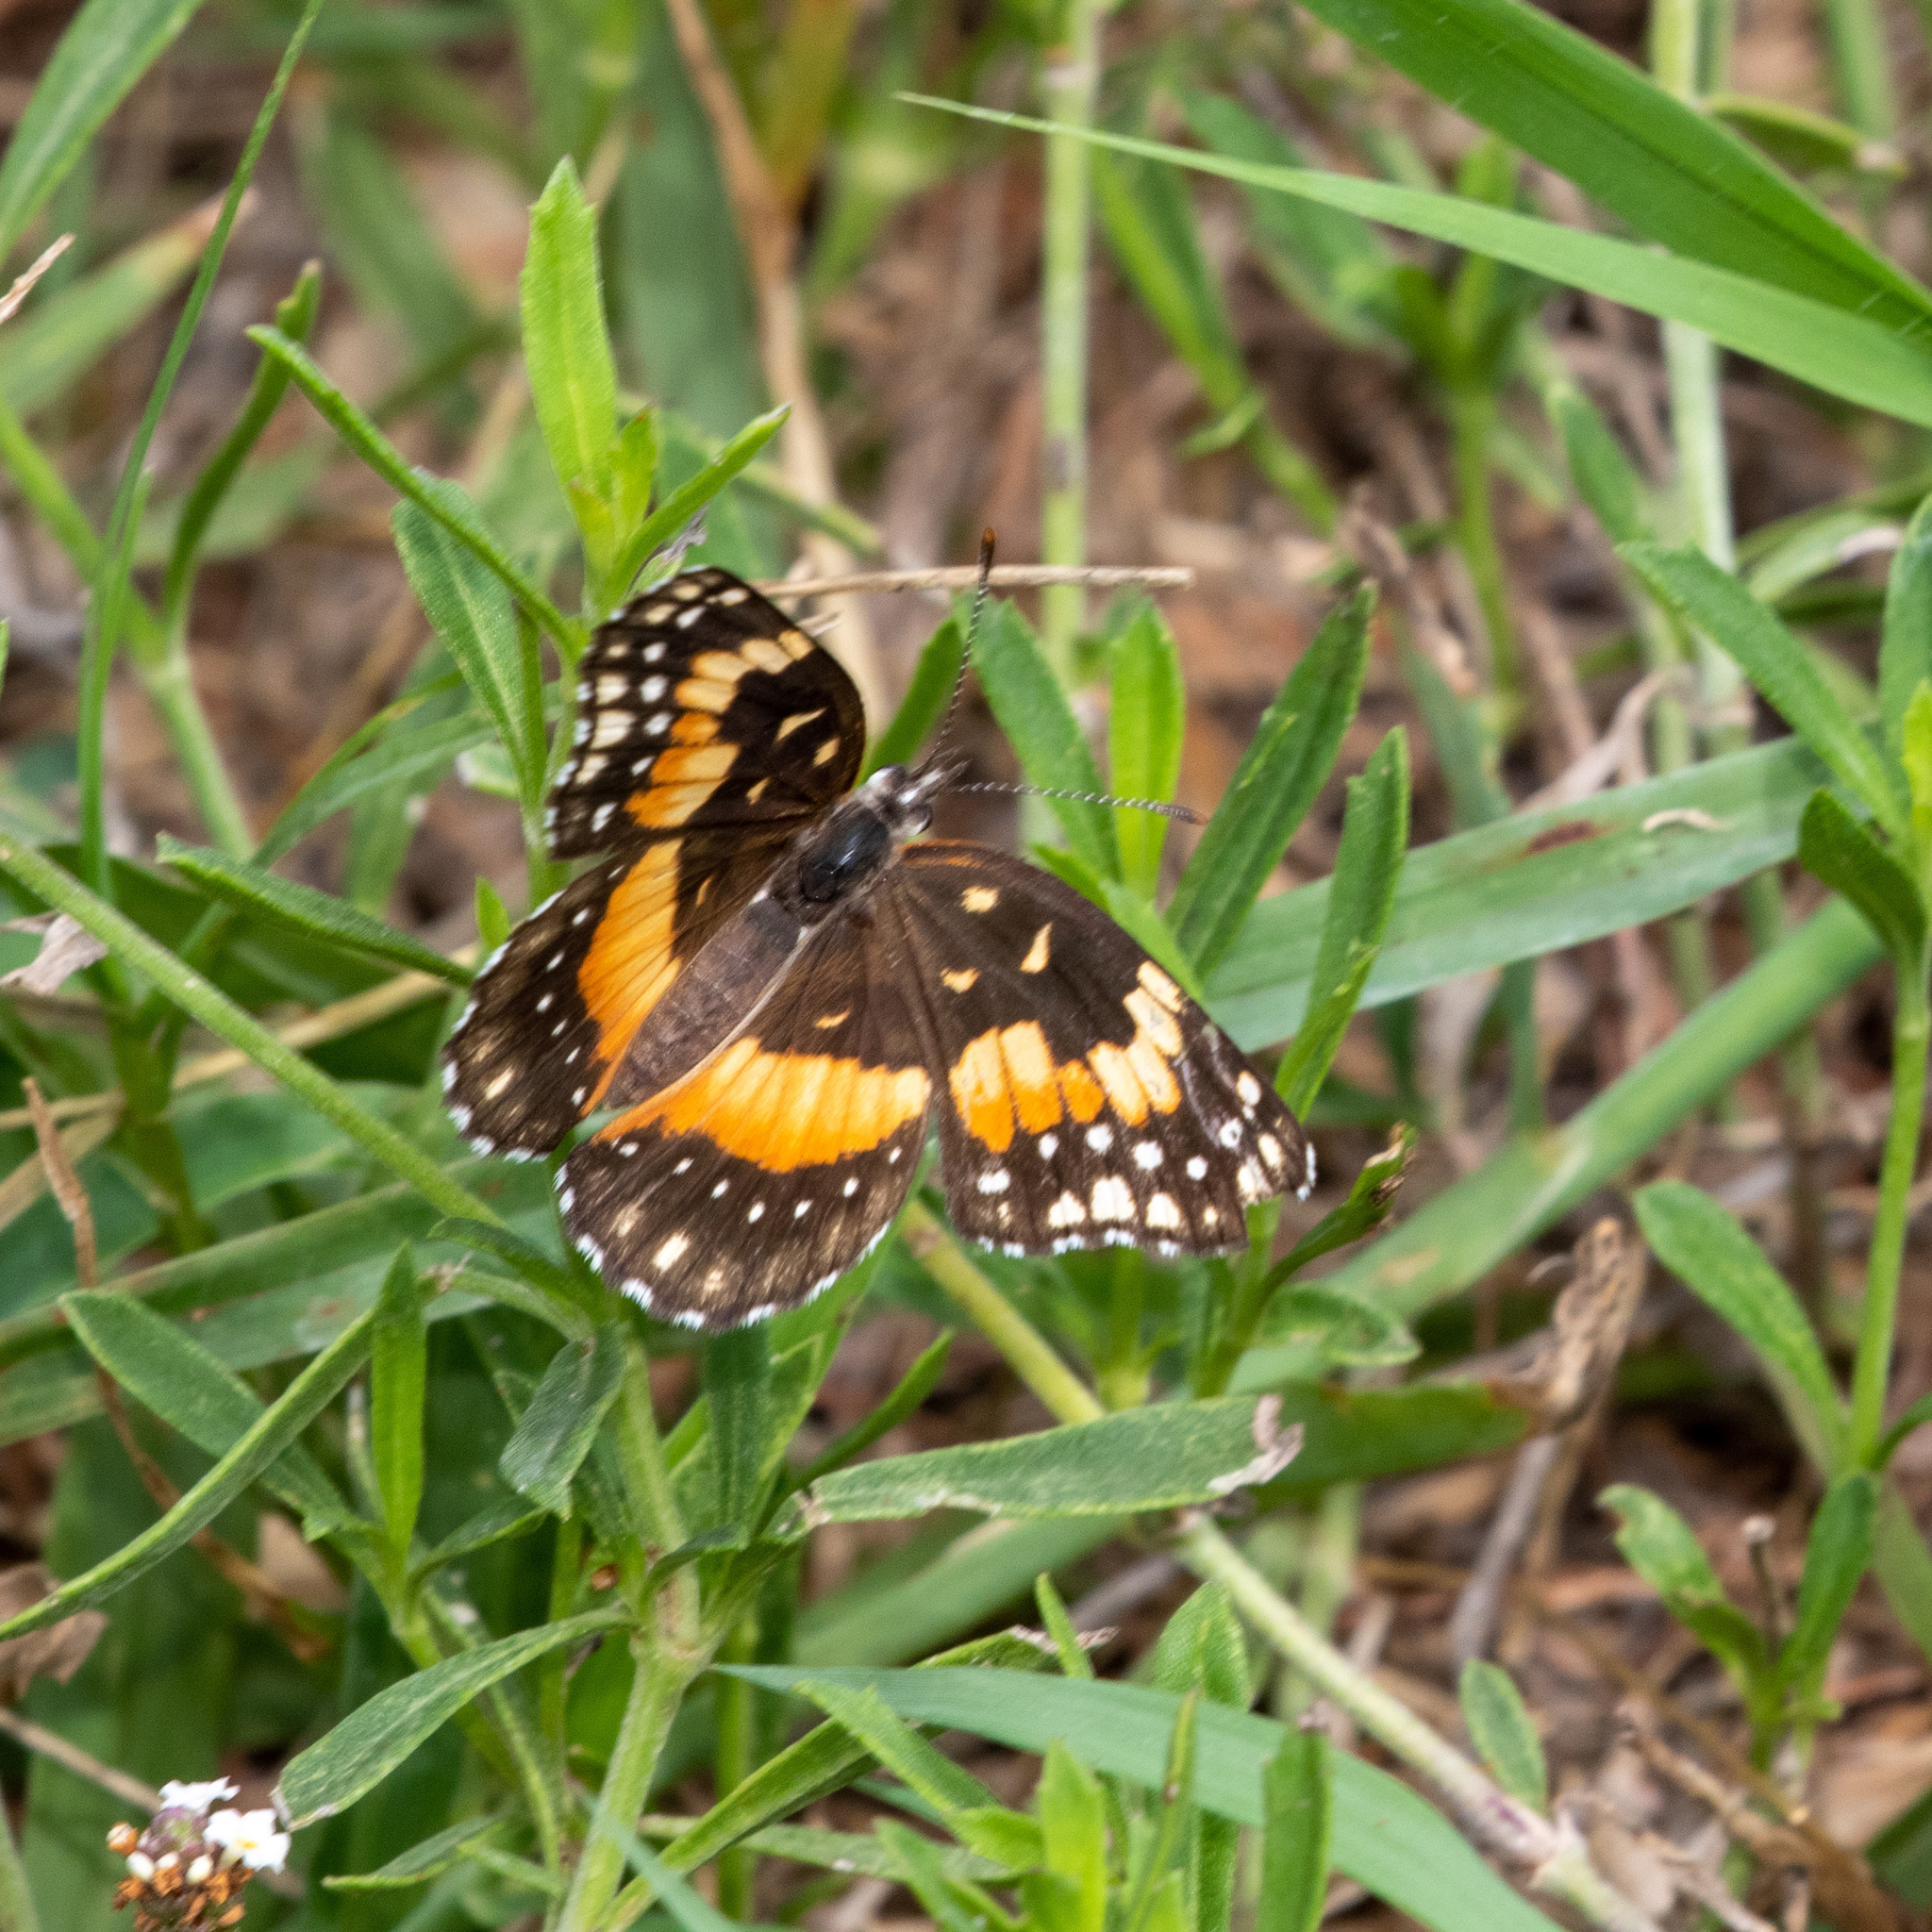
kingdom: Animalia
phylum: Arthropoda
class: Insecta
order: Lepidoptera
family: Nymphalidae
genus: Chlosyne
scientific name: Chlosyne lacinia
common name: Bordered patch
